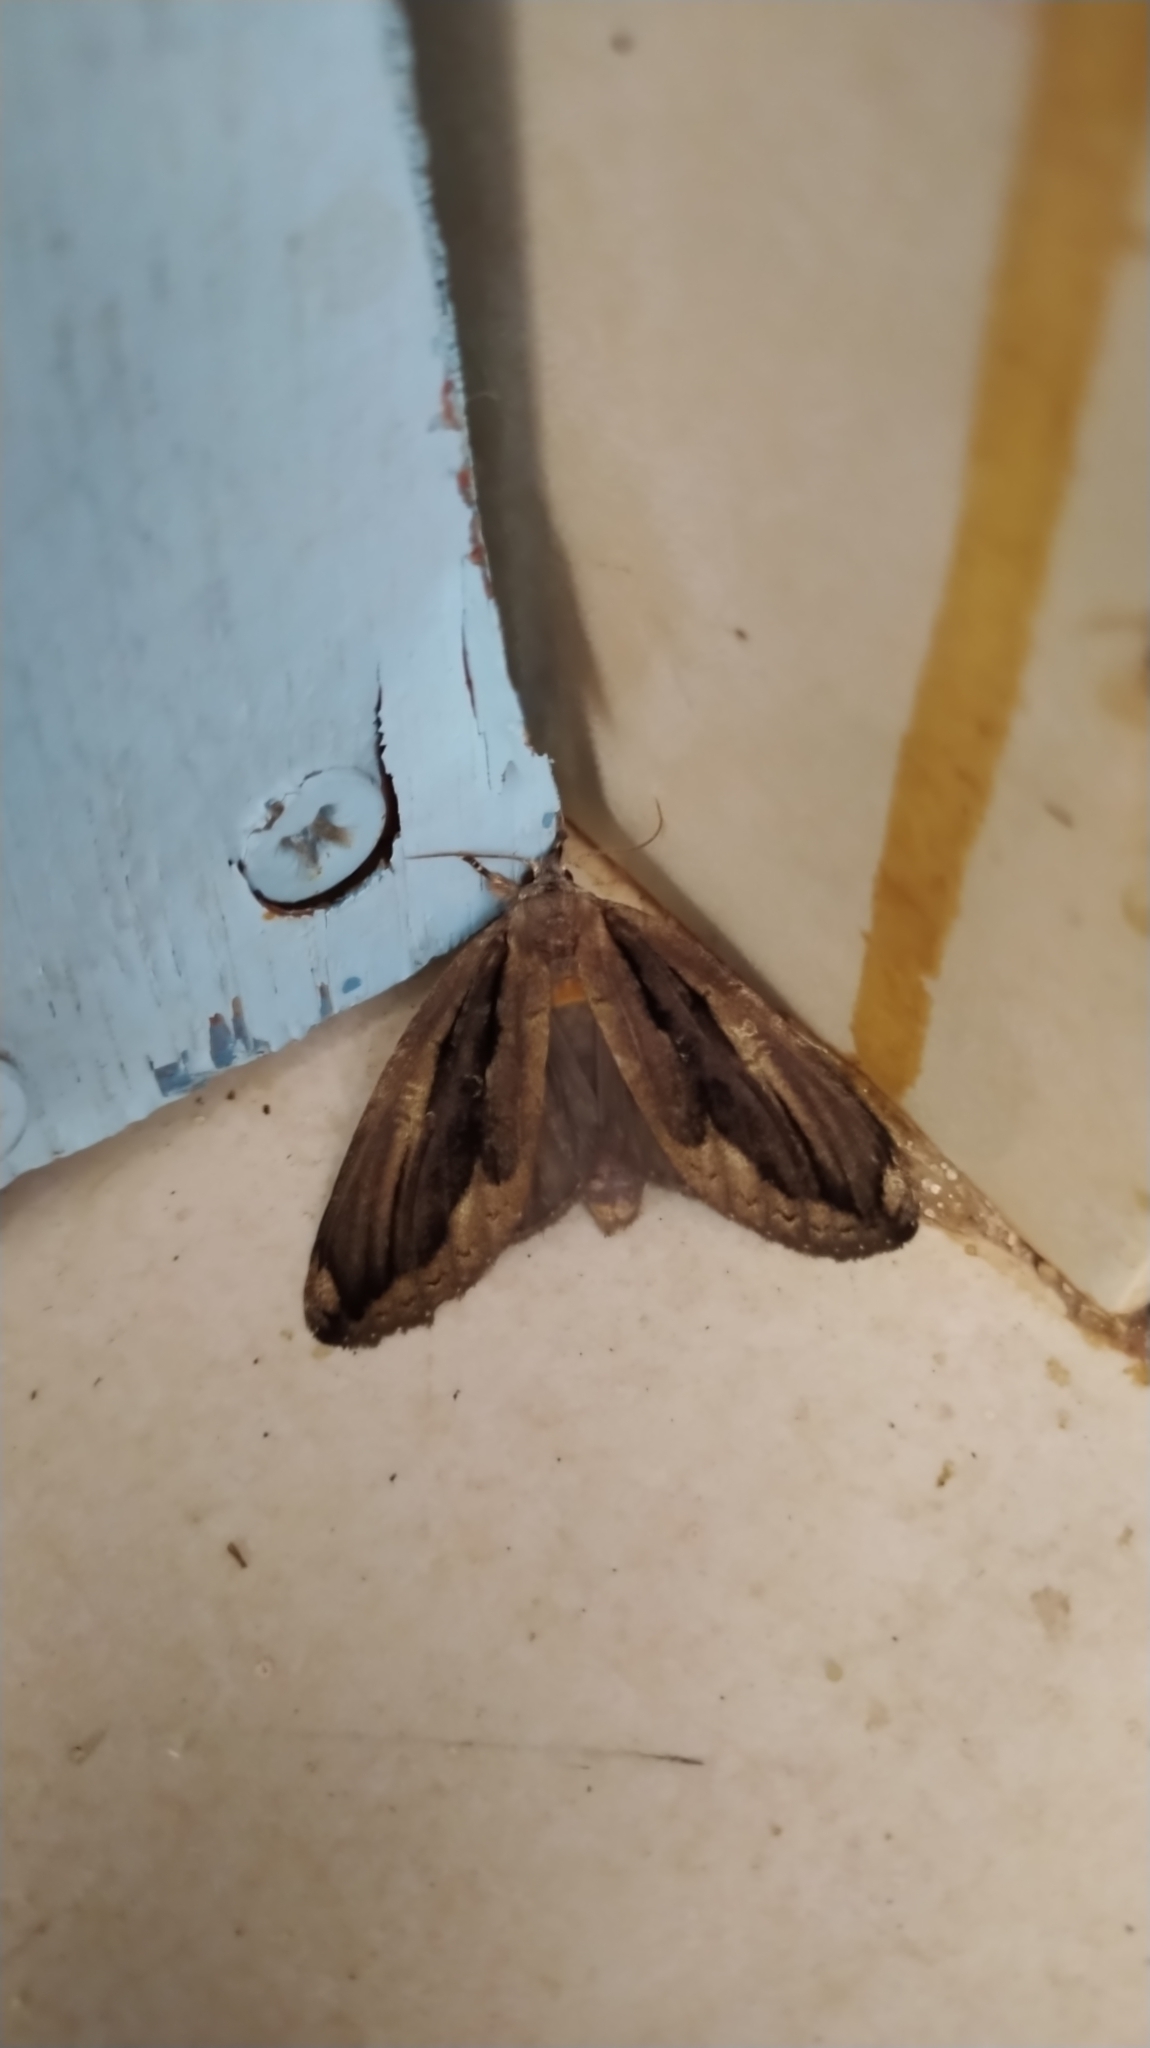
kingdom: Animalia
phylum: Arthropoda
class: Insecta
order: Lepidoptera
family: Notodontidae
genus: Lusura
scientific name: Lusura chera
